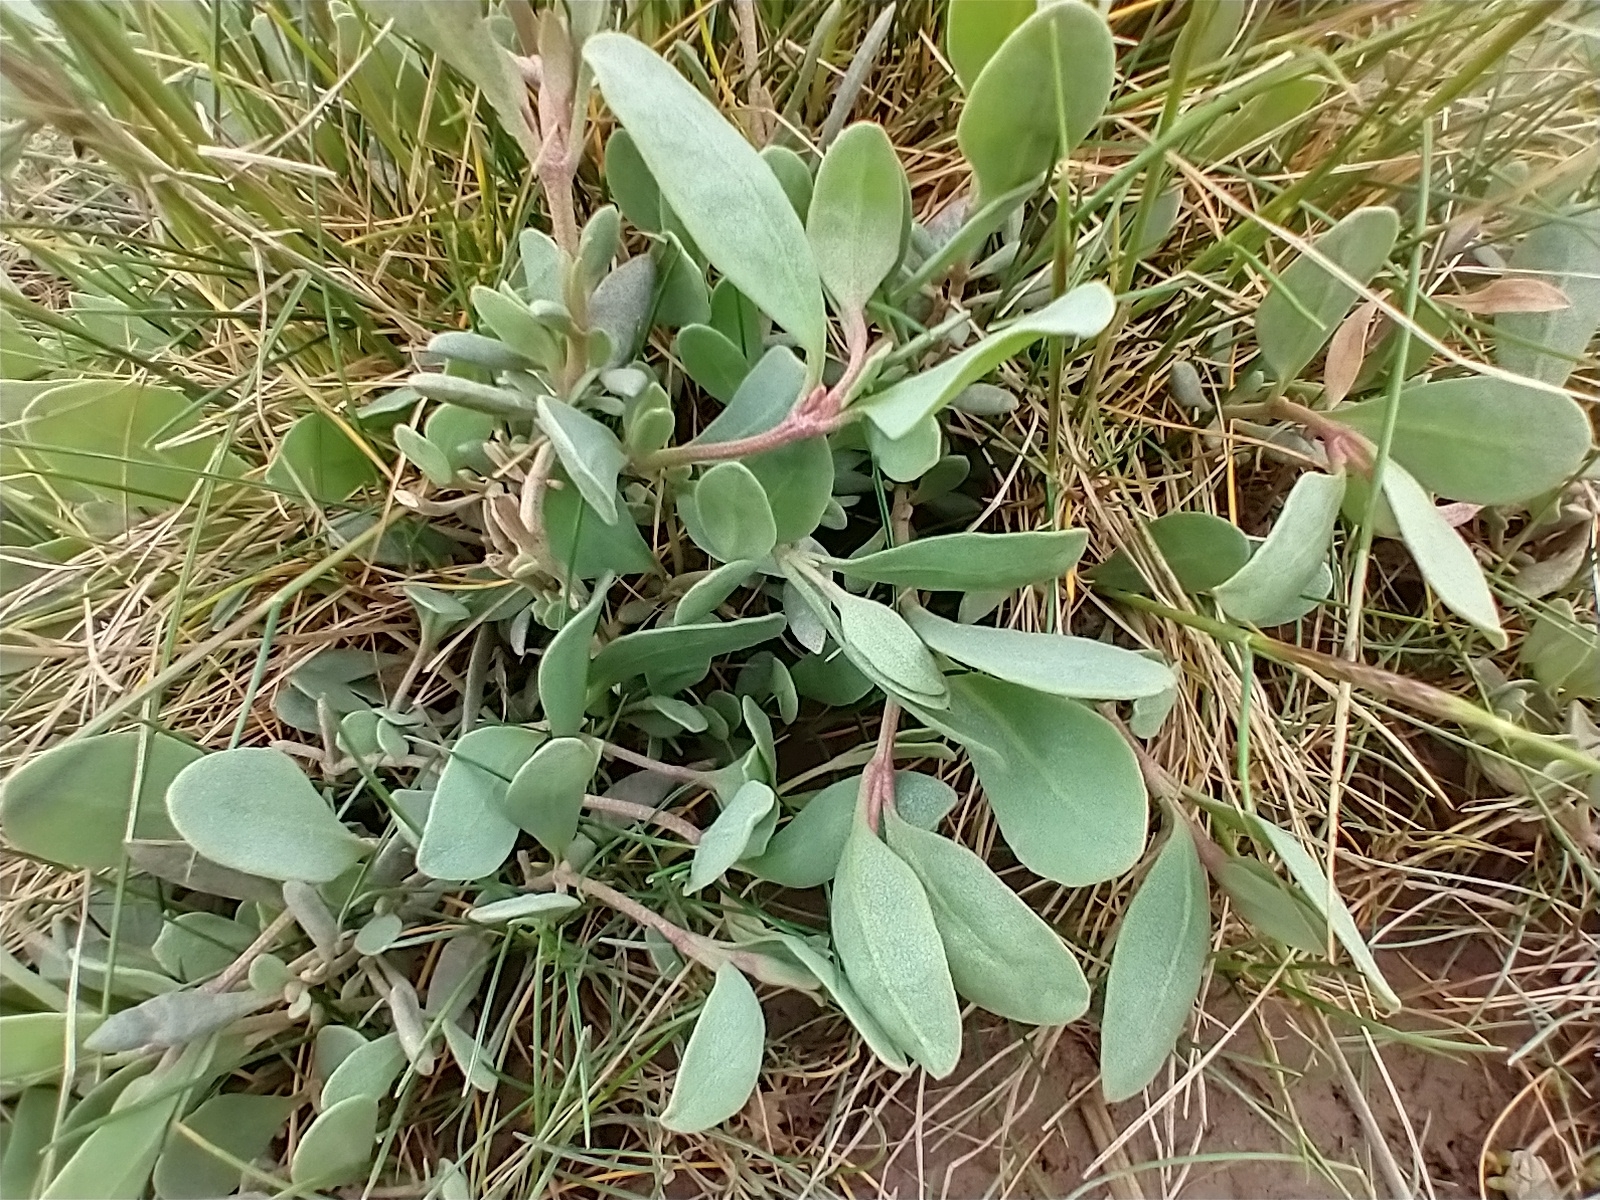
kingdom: Plantae
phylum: Tracheophyta
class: Magnoliopsida
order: Caryophyllales
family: Amaranthaceae
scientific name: Amaranthaceae
